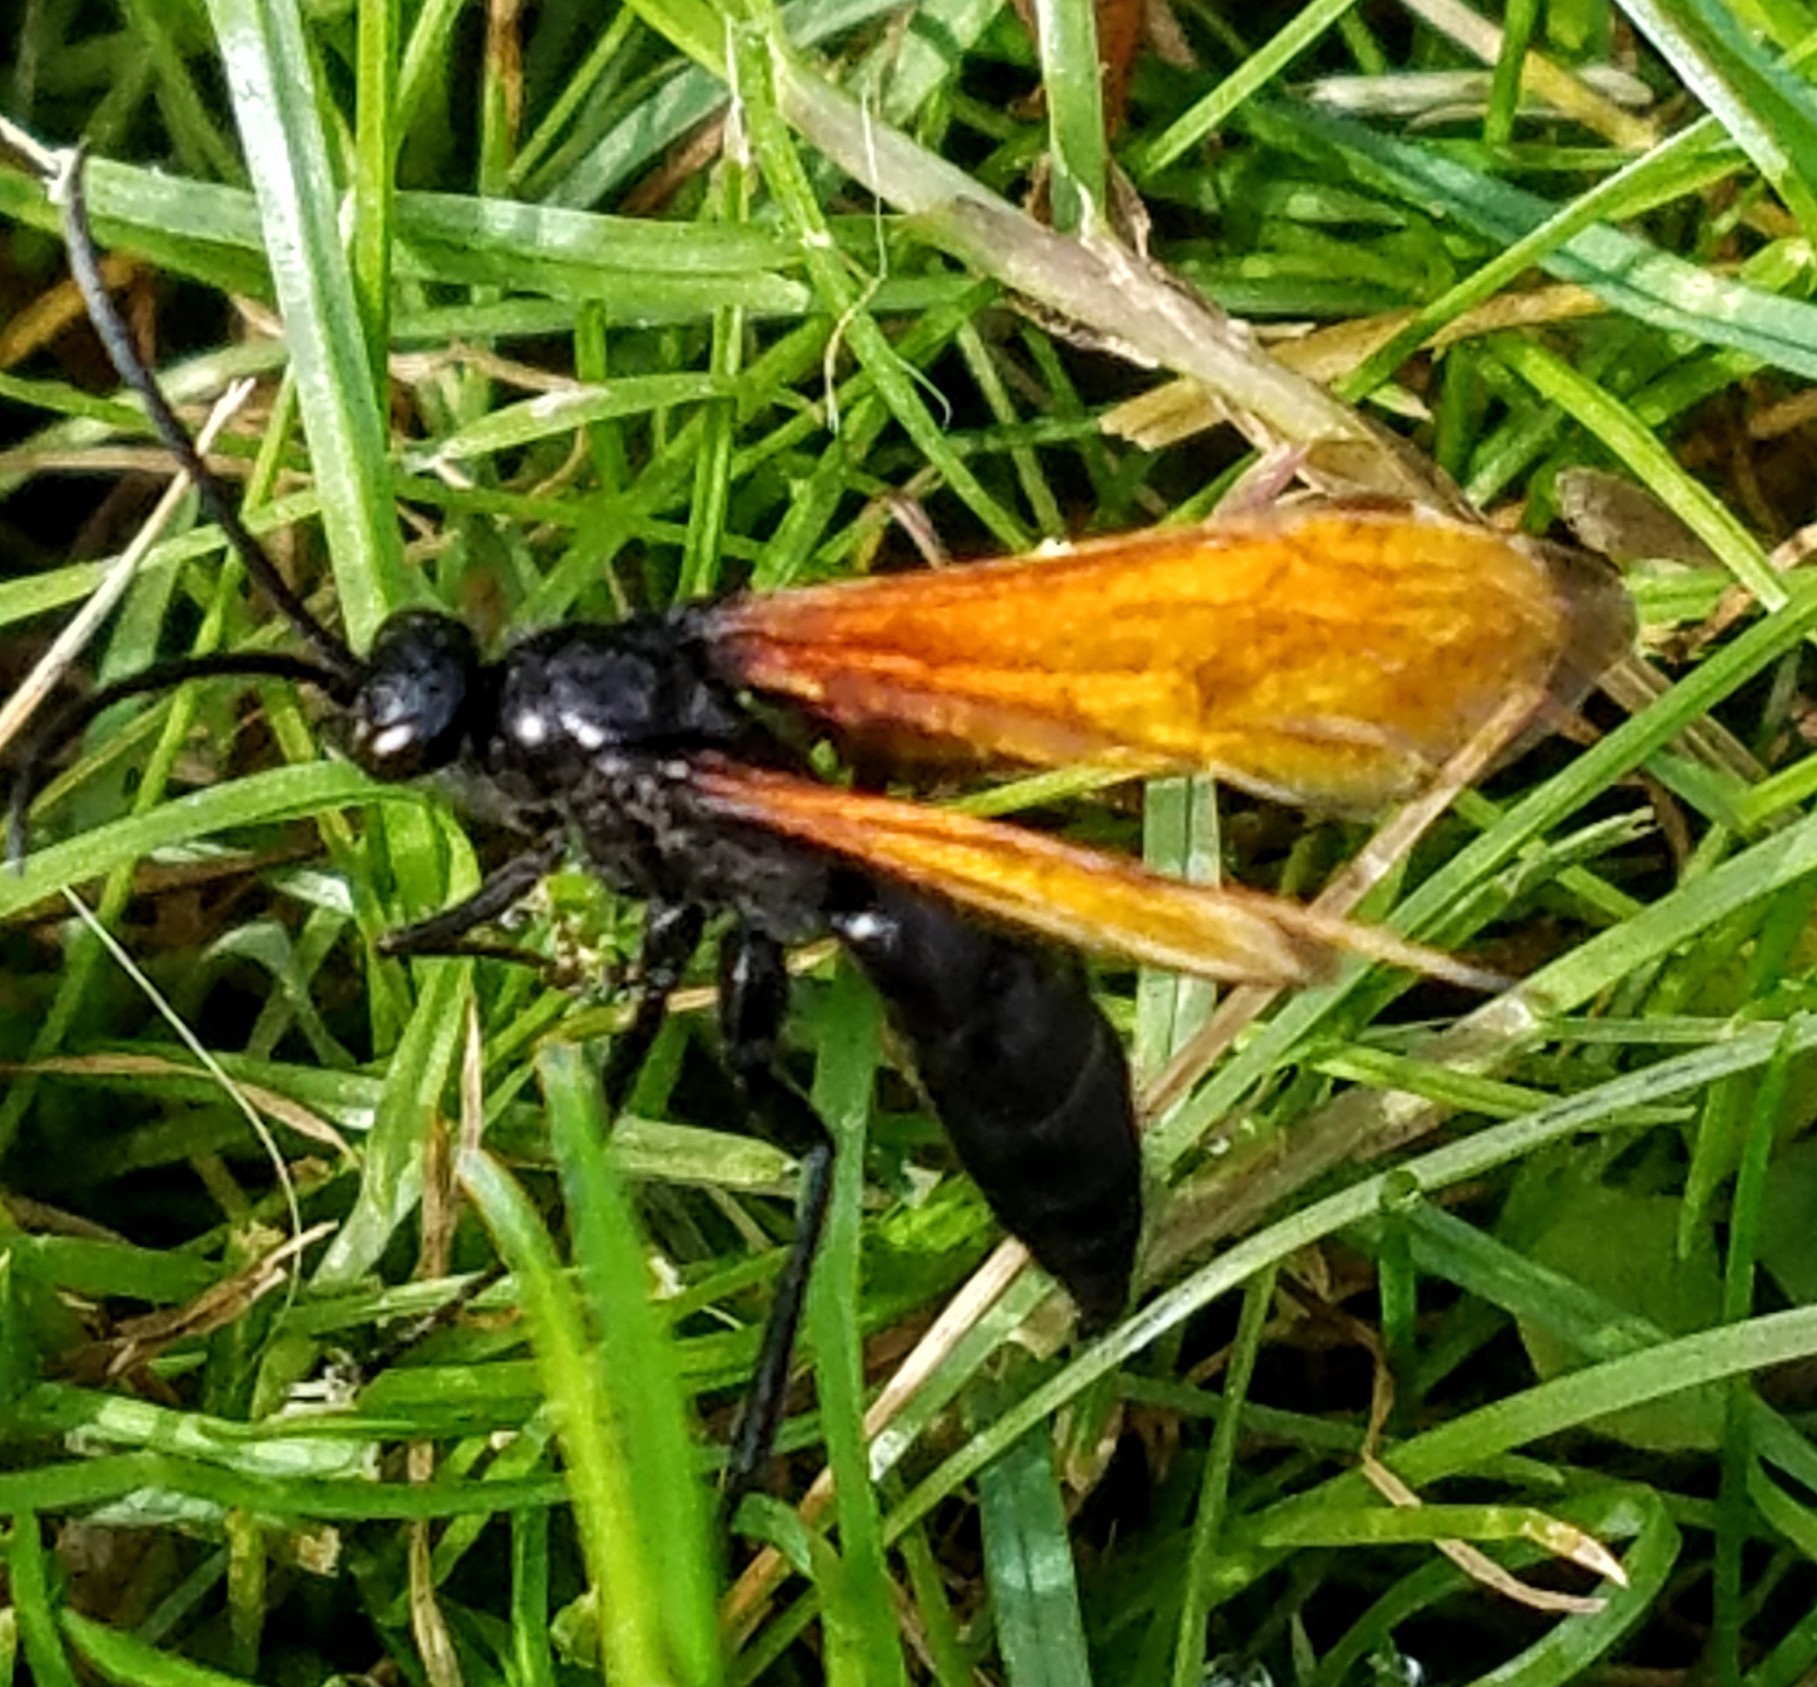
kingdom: Animalia
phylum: Arthropoda
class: Insecta
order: Hymenoptera
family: Pompilidae
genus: Chirodamus
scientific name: Chirodamus pyrrhomelas
